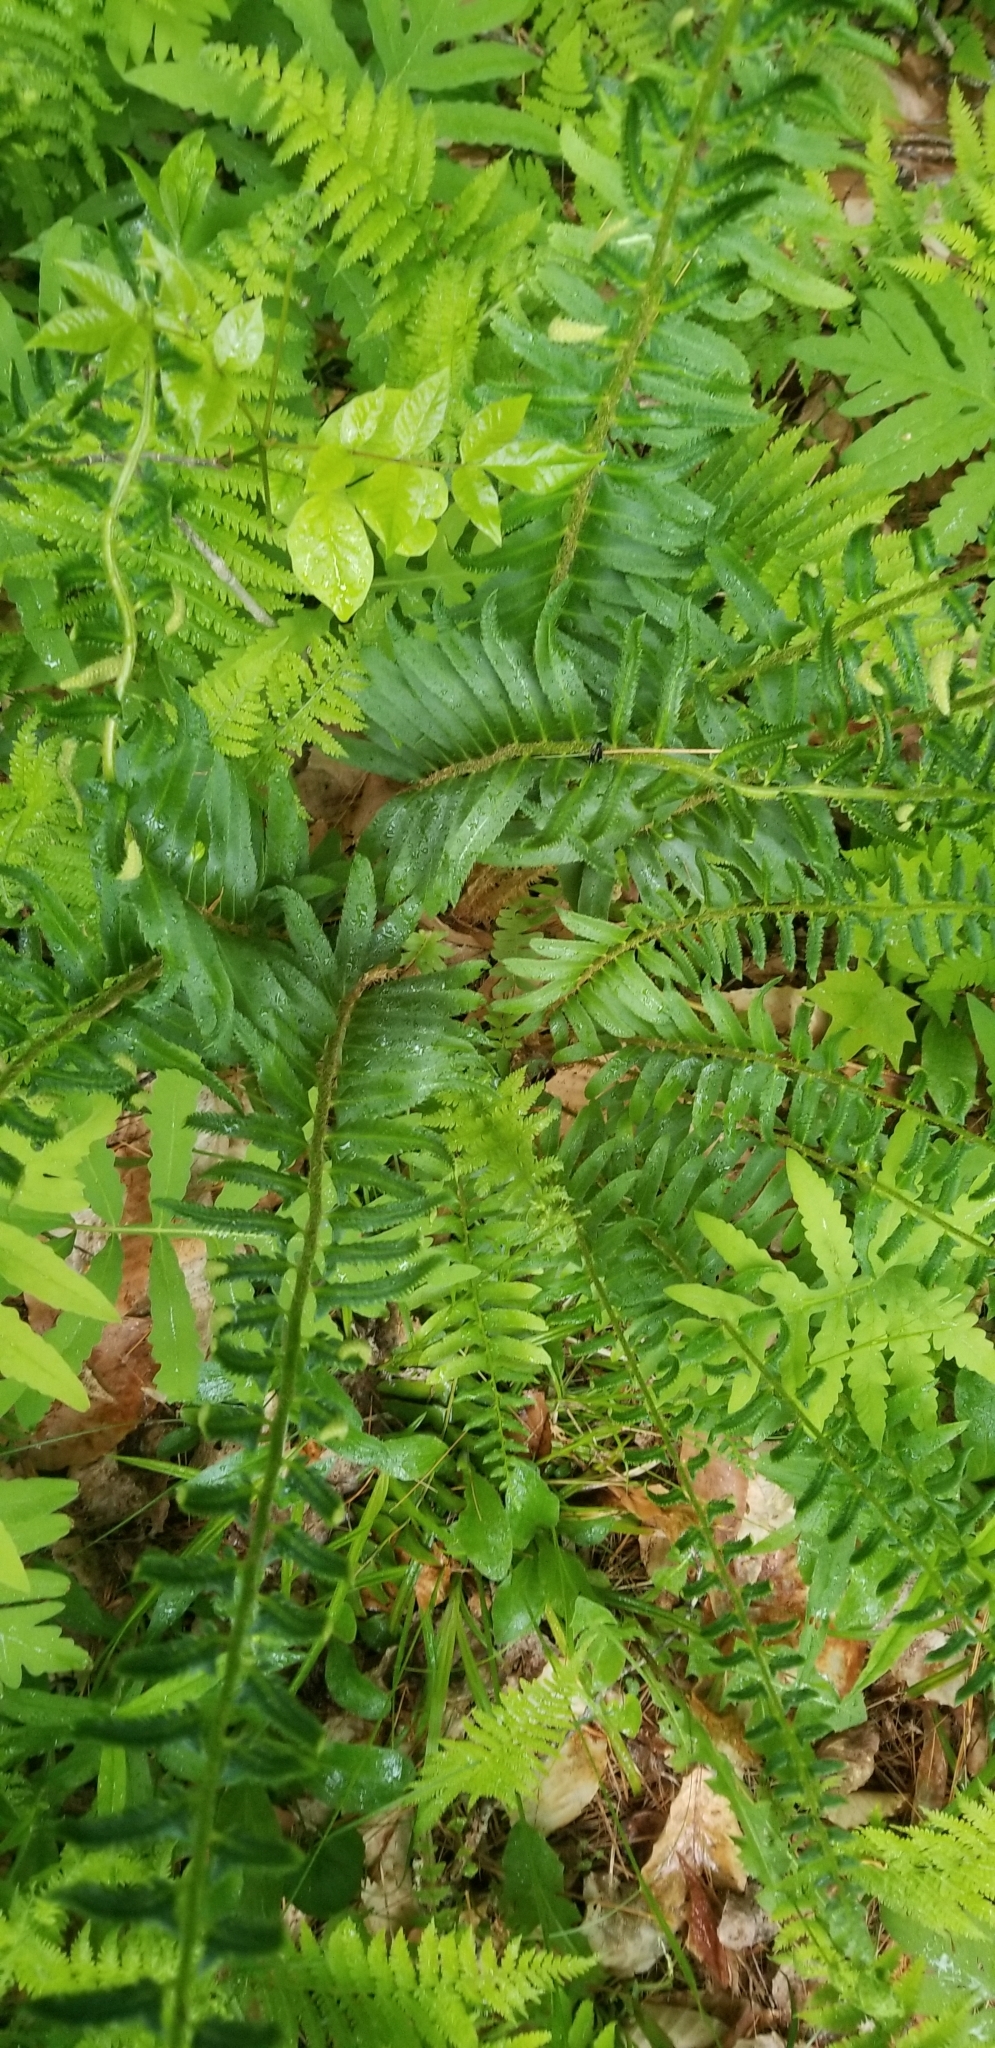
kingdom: Plantae
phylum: Tracheophyta
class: Polypodiopsida
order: Polypodiales
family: Dryopteridaceae
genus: Polystichum
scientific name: Polystichum acrostichoides
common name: Christmas fern
